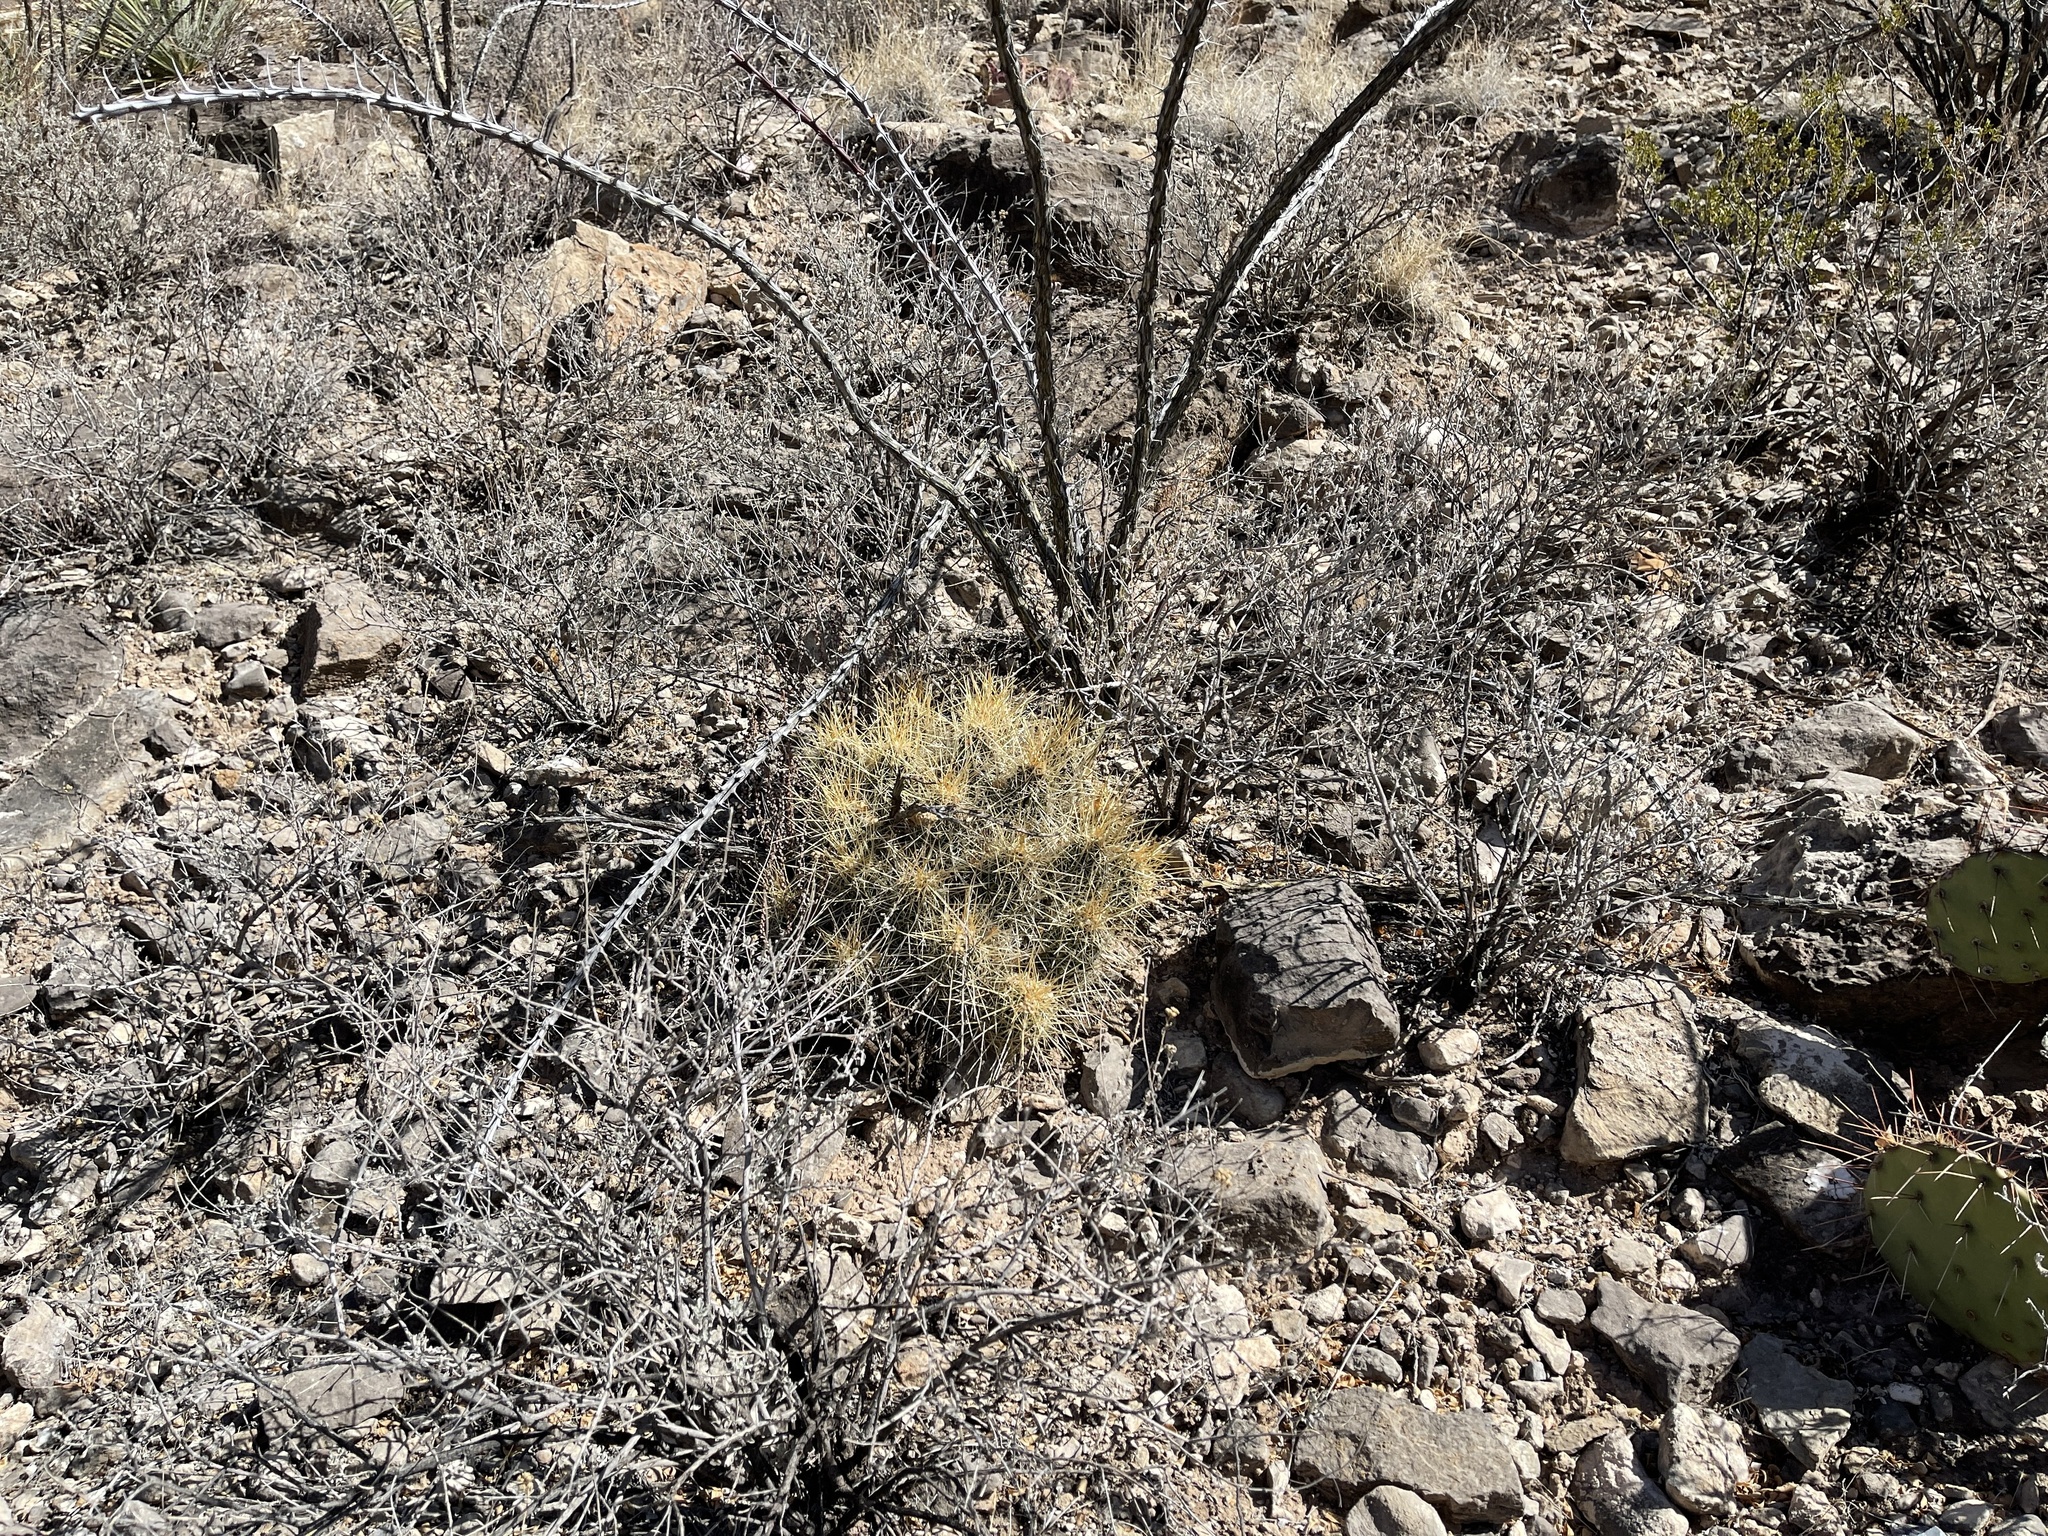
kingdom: Plantae
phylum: Tracheophyta
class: Magnoliopsida
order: Caryophyllales
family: Cactaceae
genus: Echinocereus
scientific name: Echinocereus stramineus
